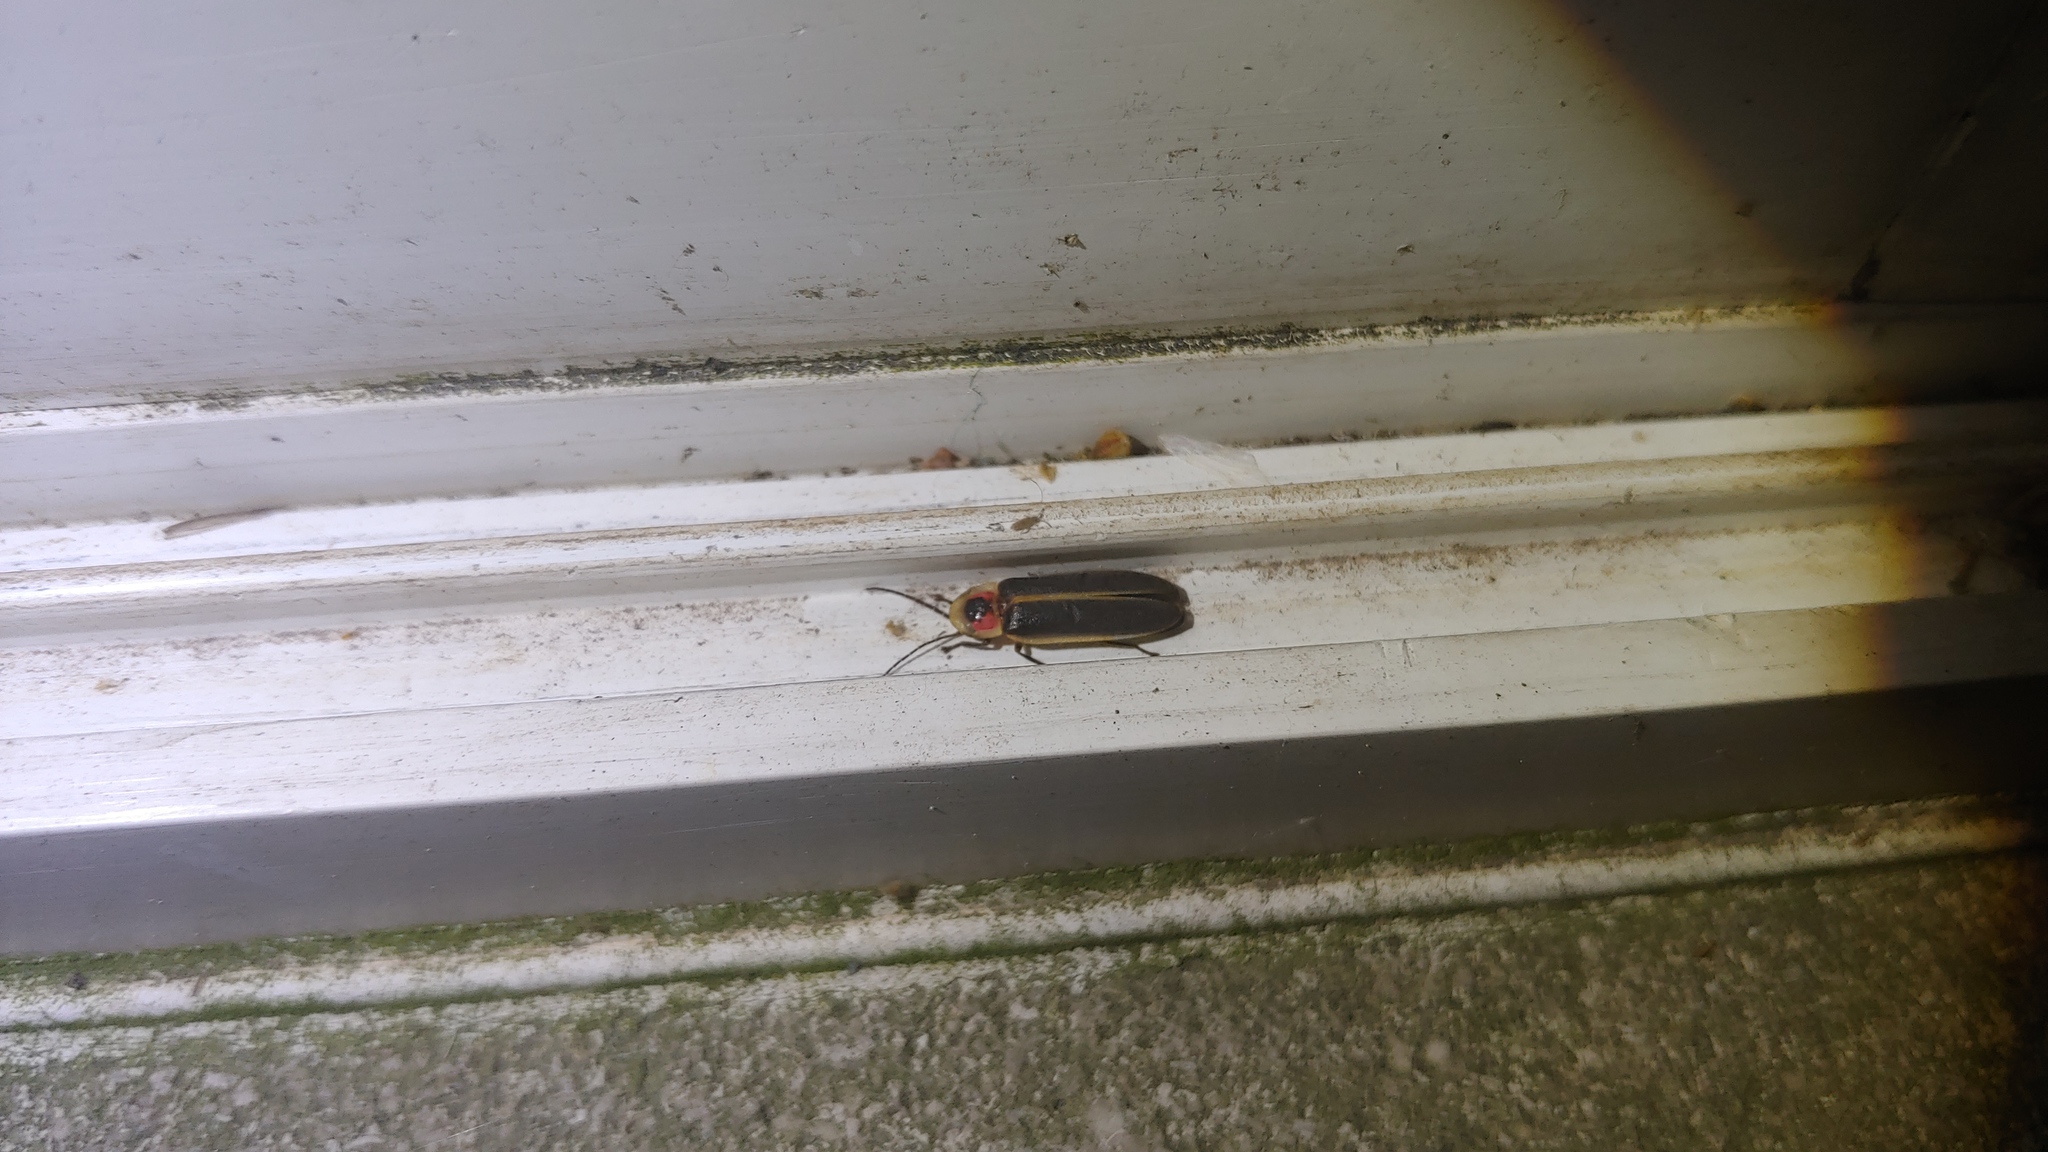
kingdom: Animalia
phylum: Arthropoda
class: Insecta
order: Coleoptera
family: Lampyridae
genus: Photinus
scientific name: Photinus pyralis
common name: Big dipper firefly
